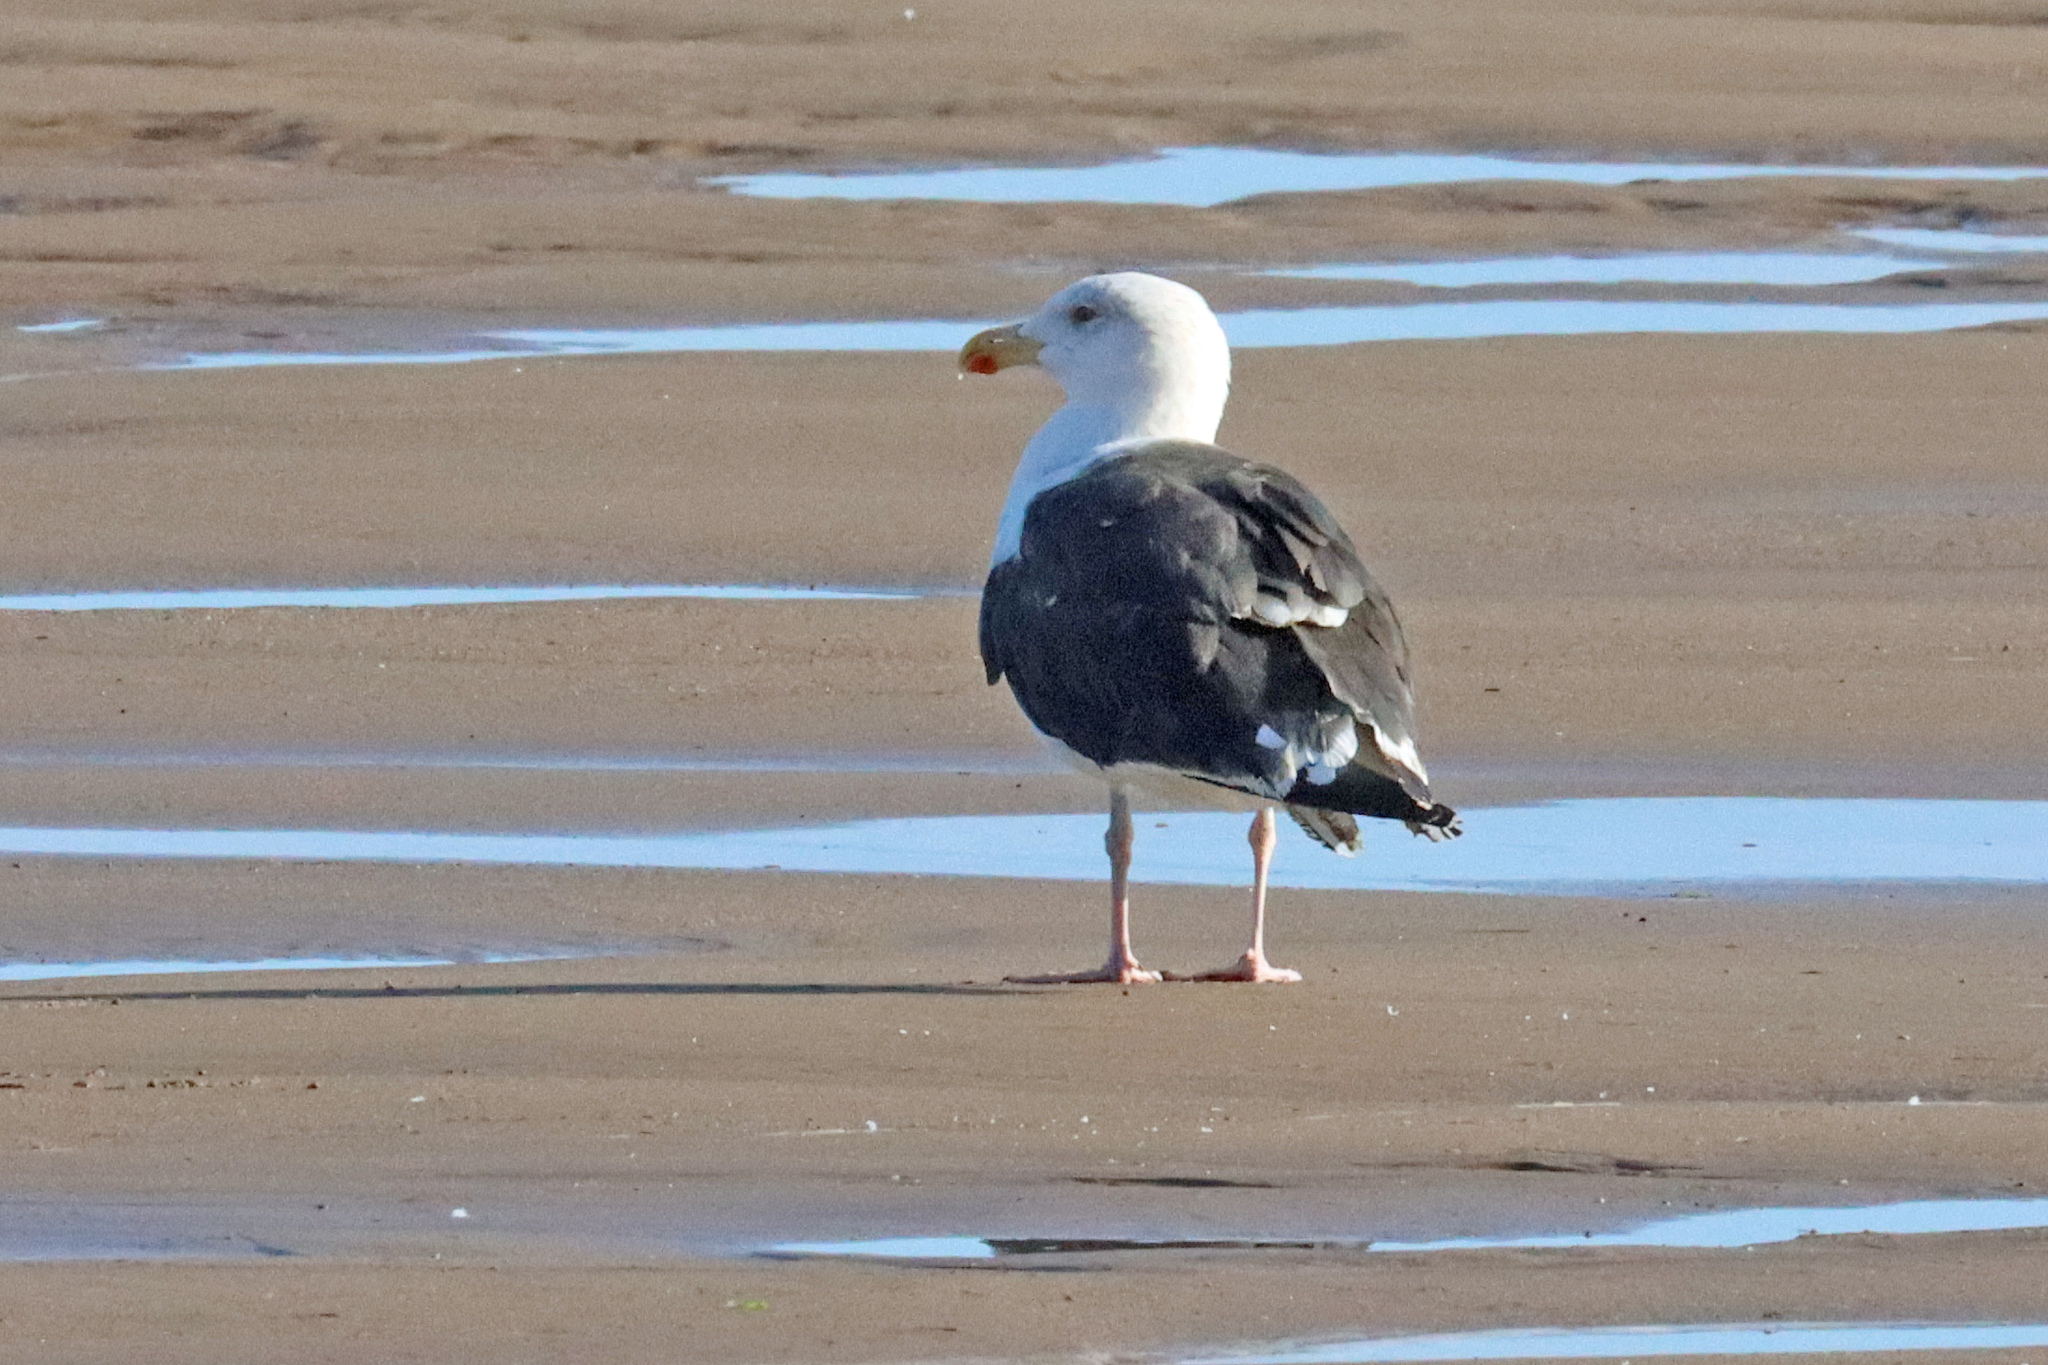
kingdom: Animalia
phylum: Chordata
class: Aves
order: Charadriiformes
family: Laridae
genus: Larus
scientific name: Larus marinus
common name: Great black-backed gull
